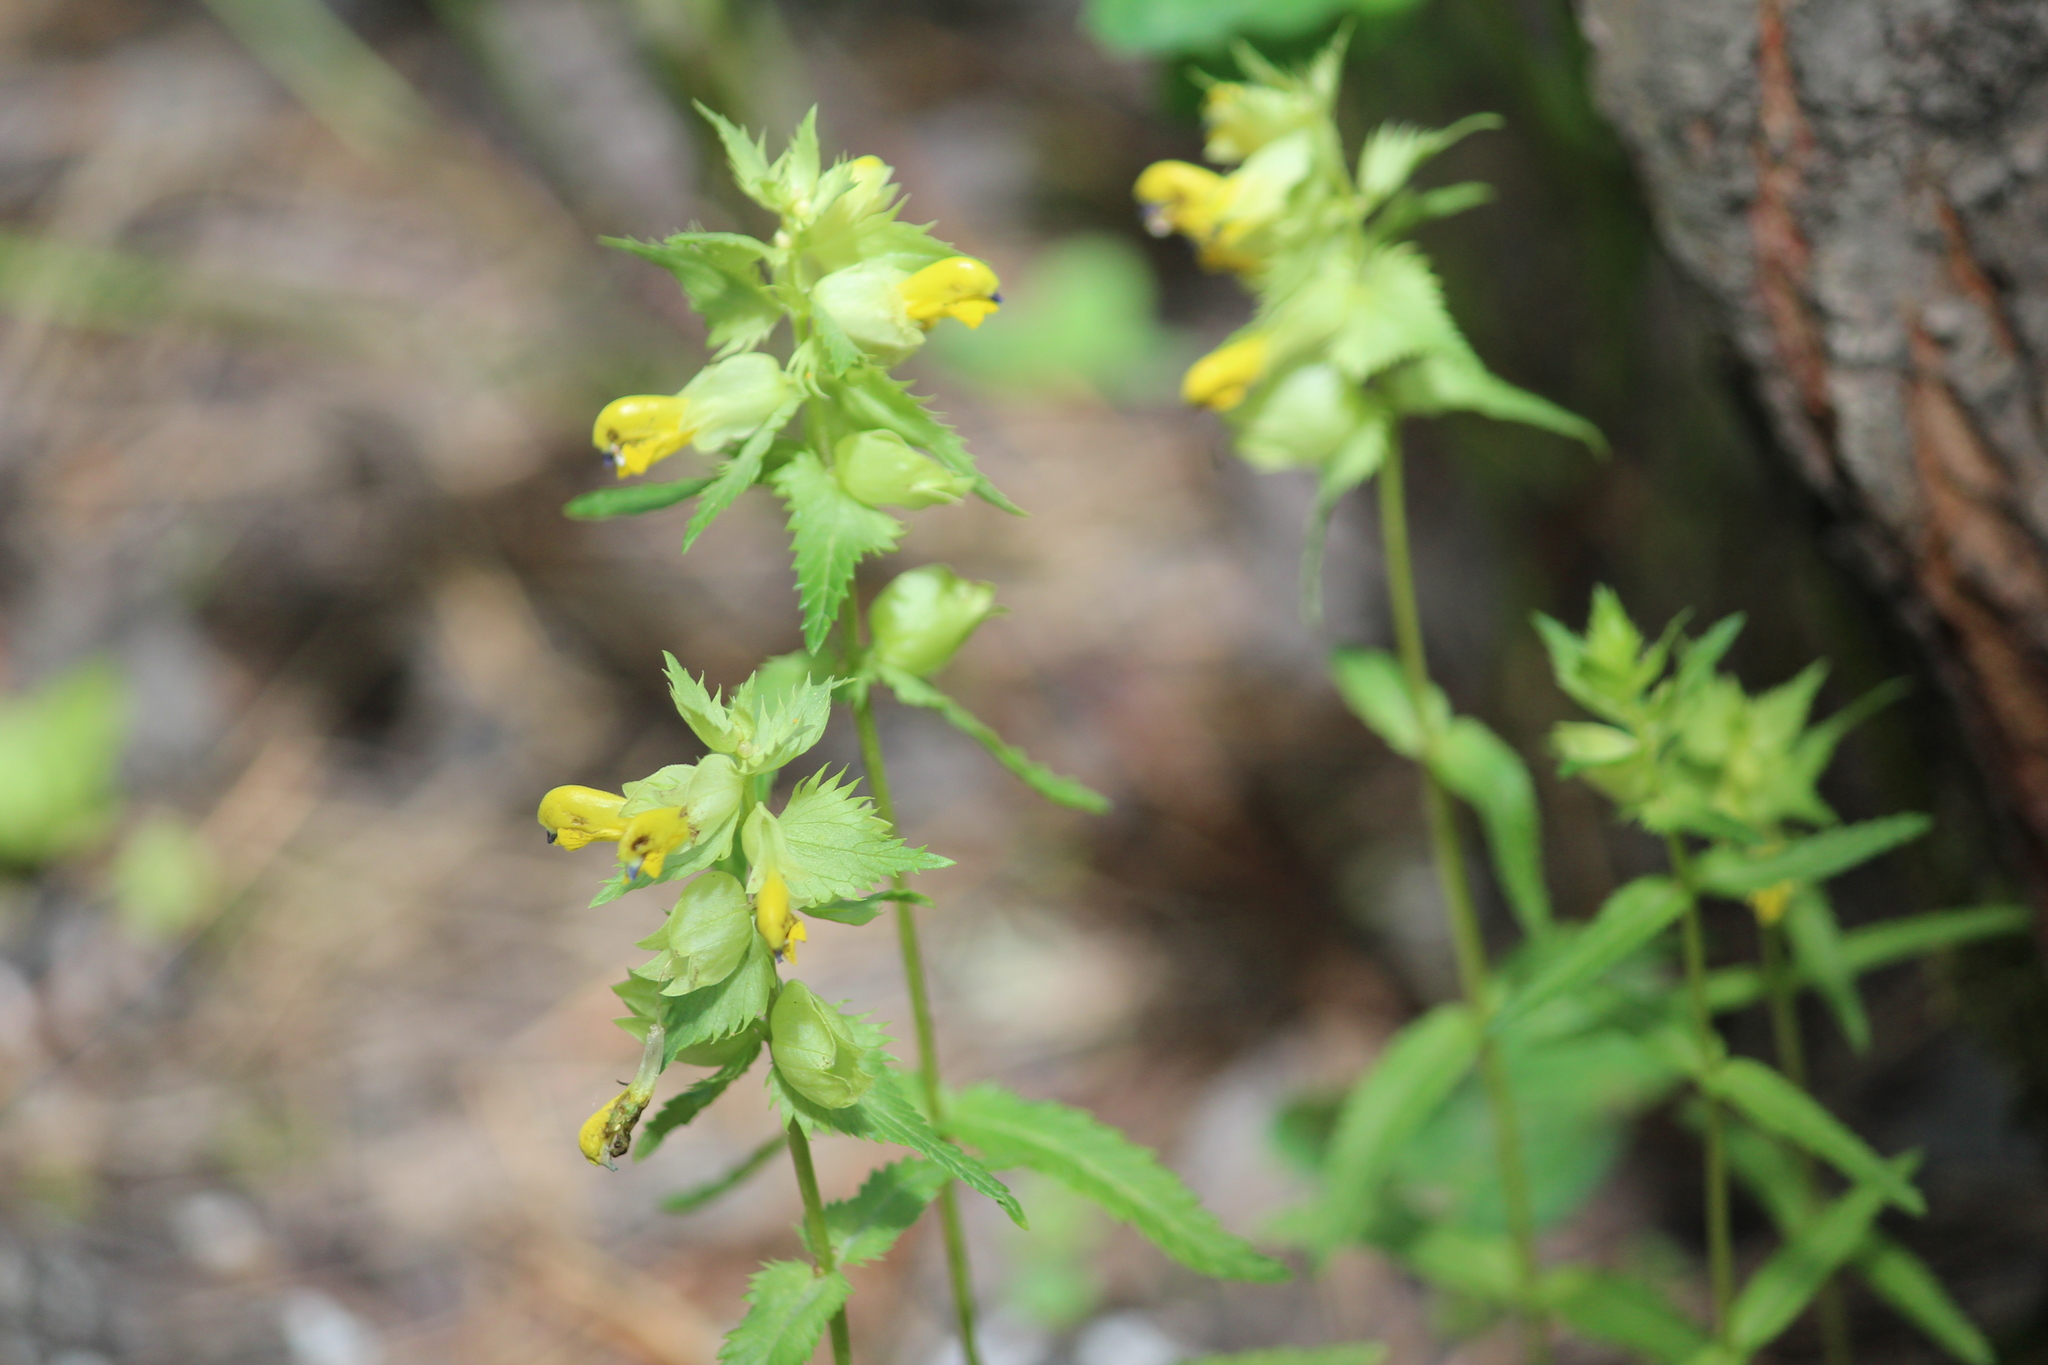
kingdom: Plantae
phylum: Tracheophyta
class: Magnoliopsida
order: Lamiales
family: Orobanchaceae
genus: Rhinanthus
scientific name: Rhinanthus serotinus
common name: Late-flowering yellow rattle
